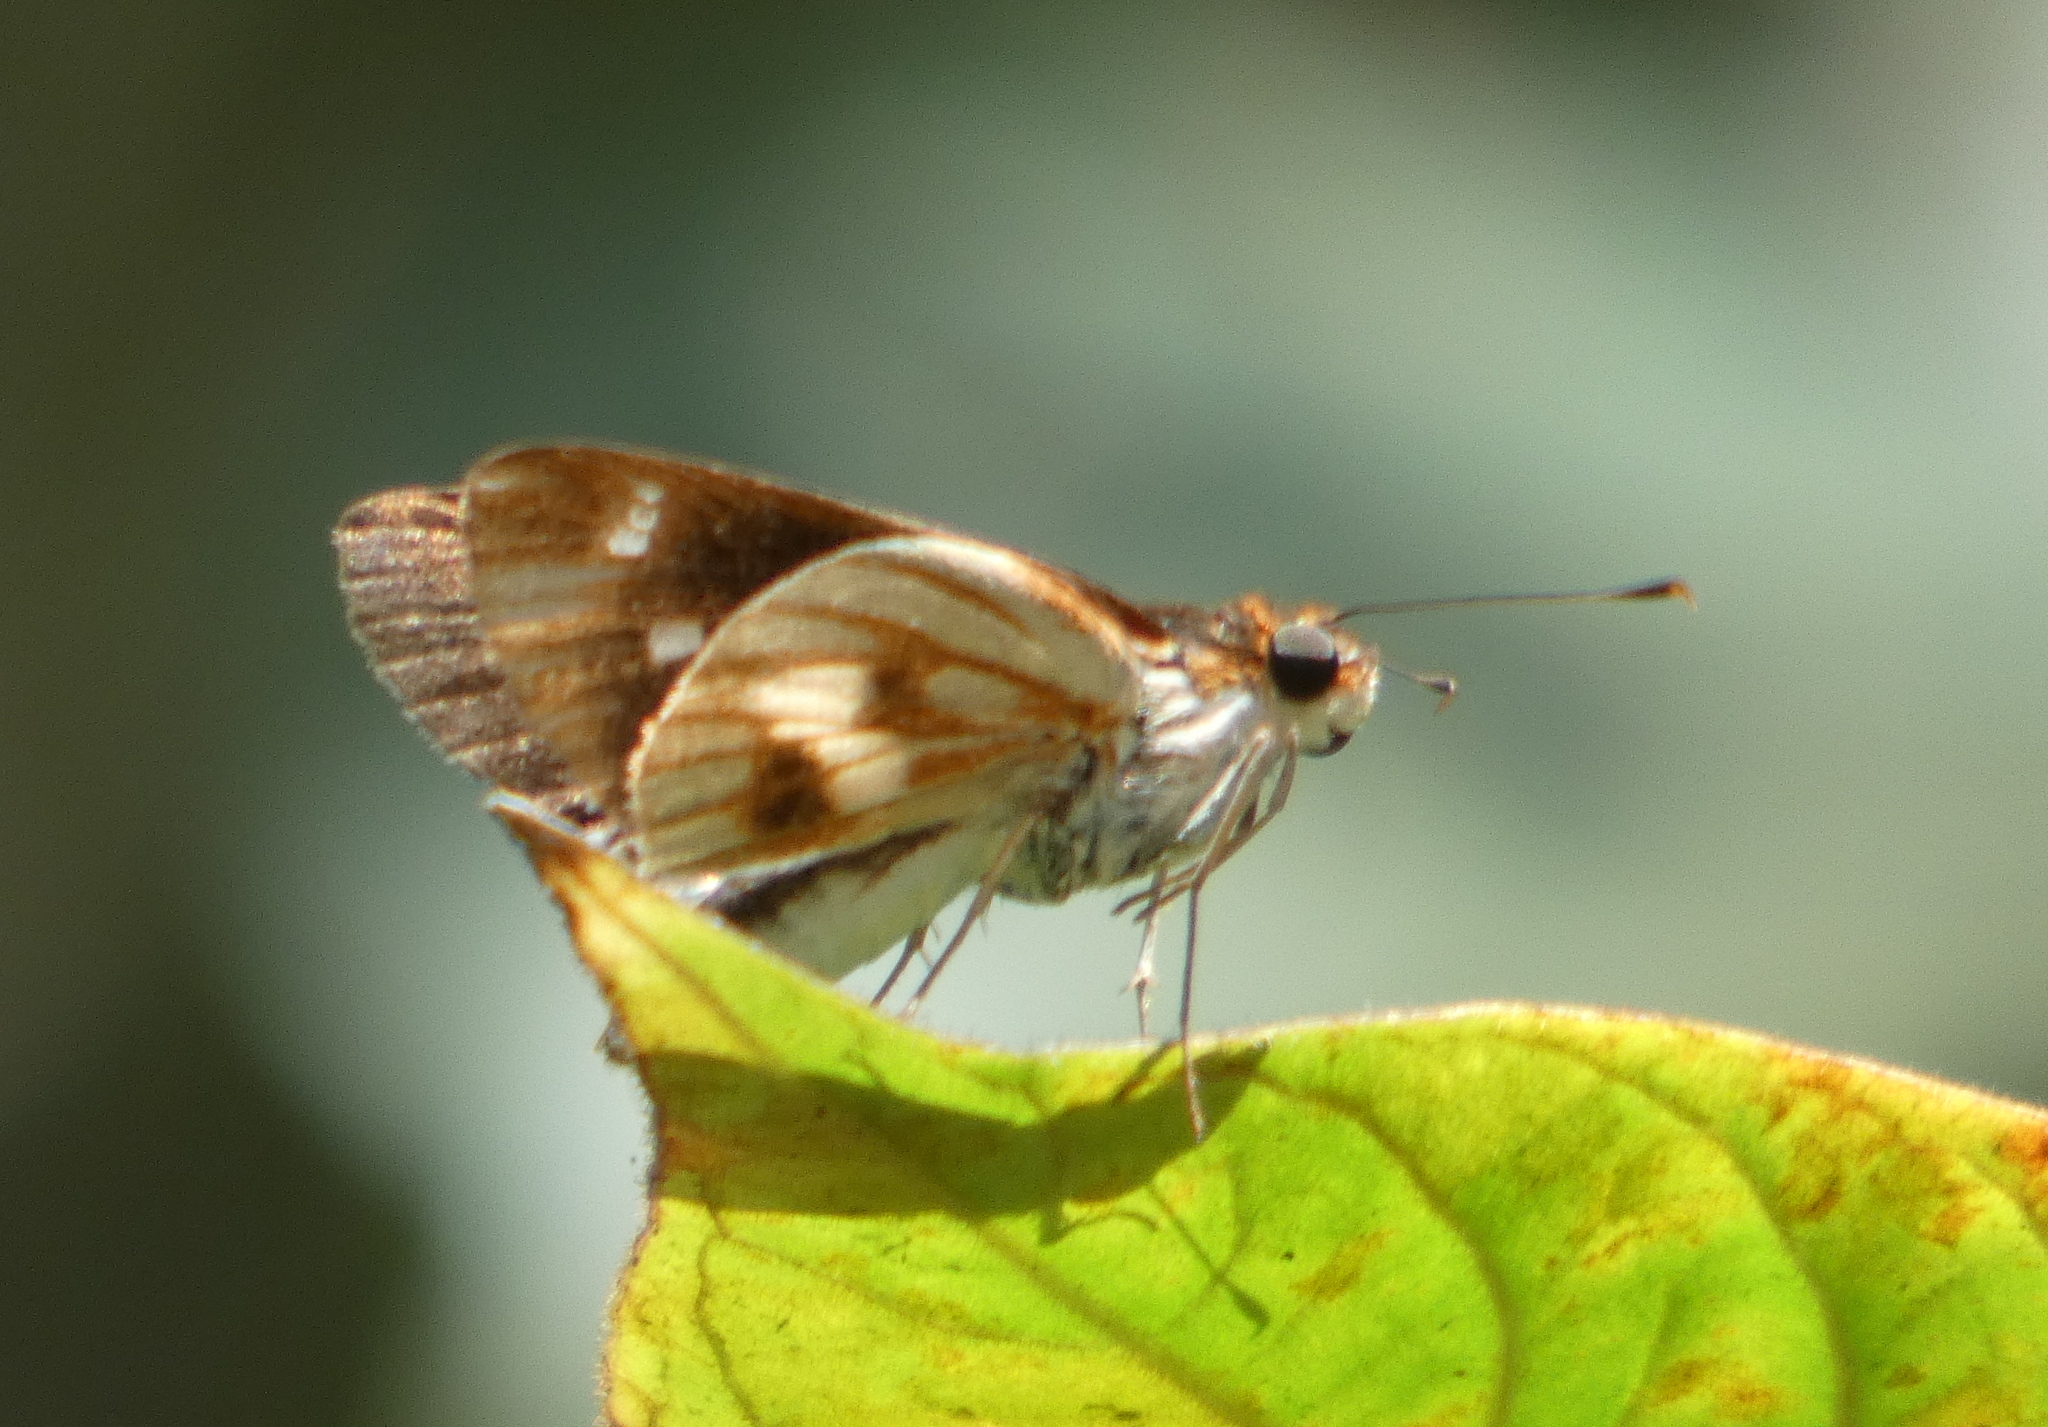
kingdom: Animalia
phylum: Arthropoda
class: Insecta
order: Lepidoptera
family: Hesperiidae
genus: Troyus
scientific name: Troyus fantasos
